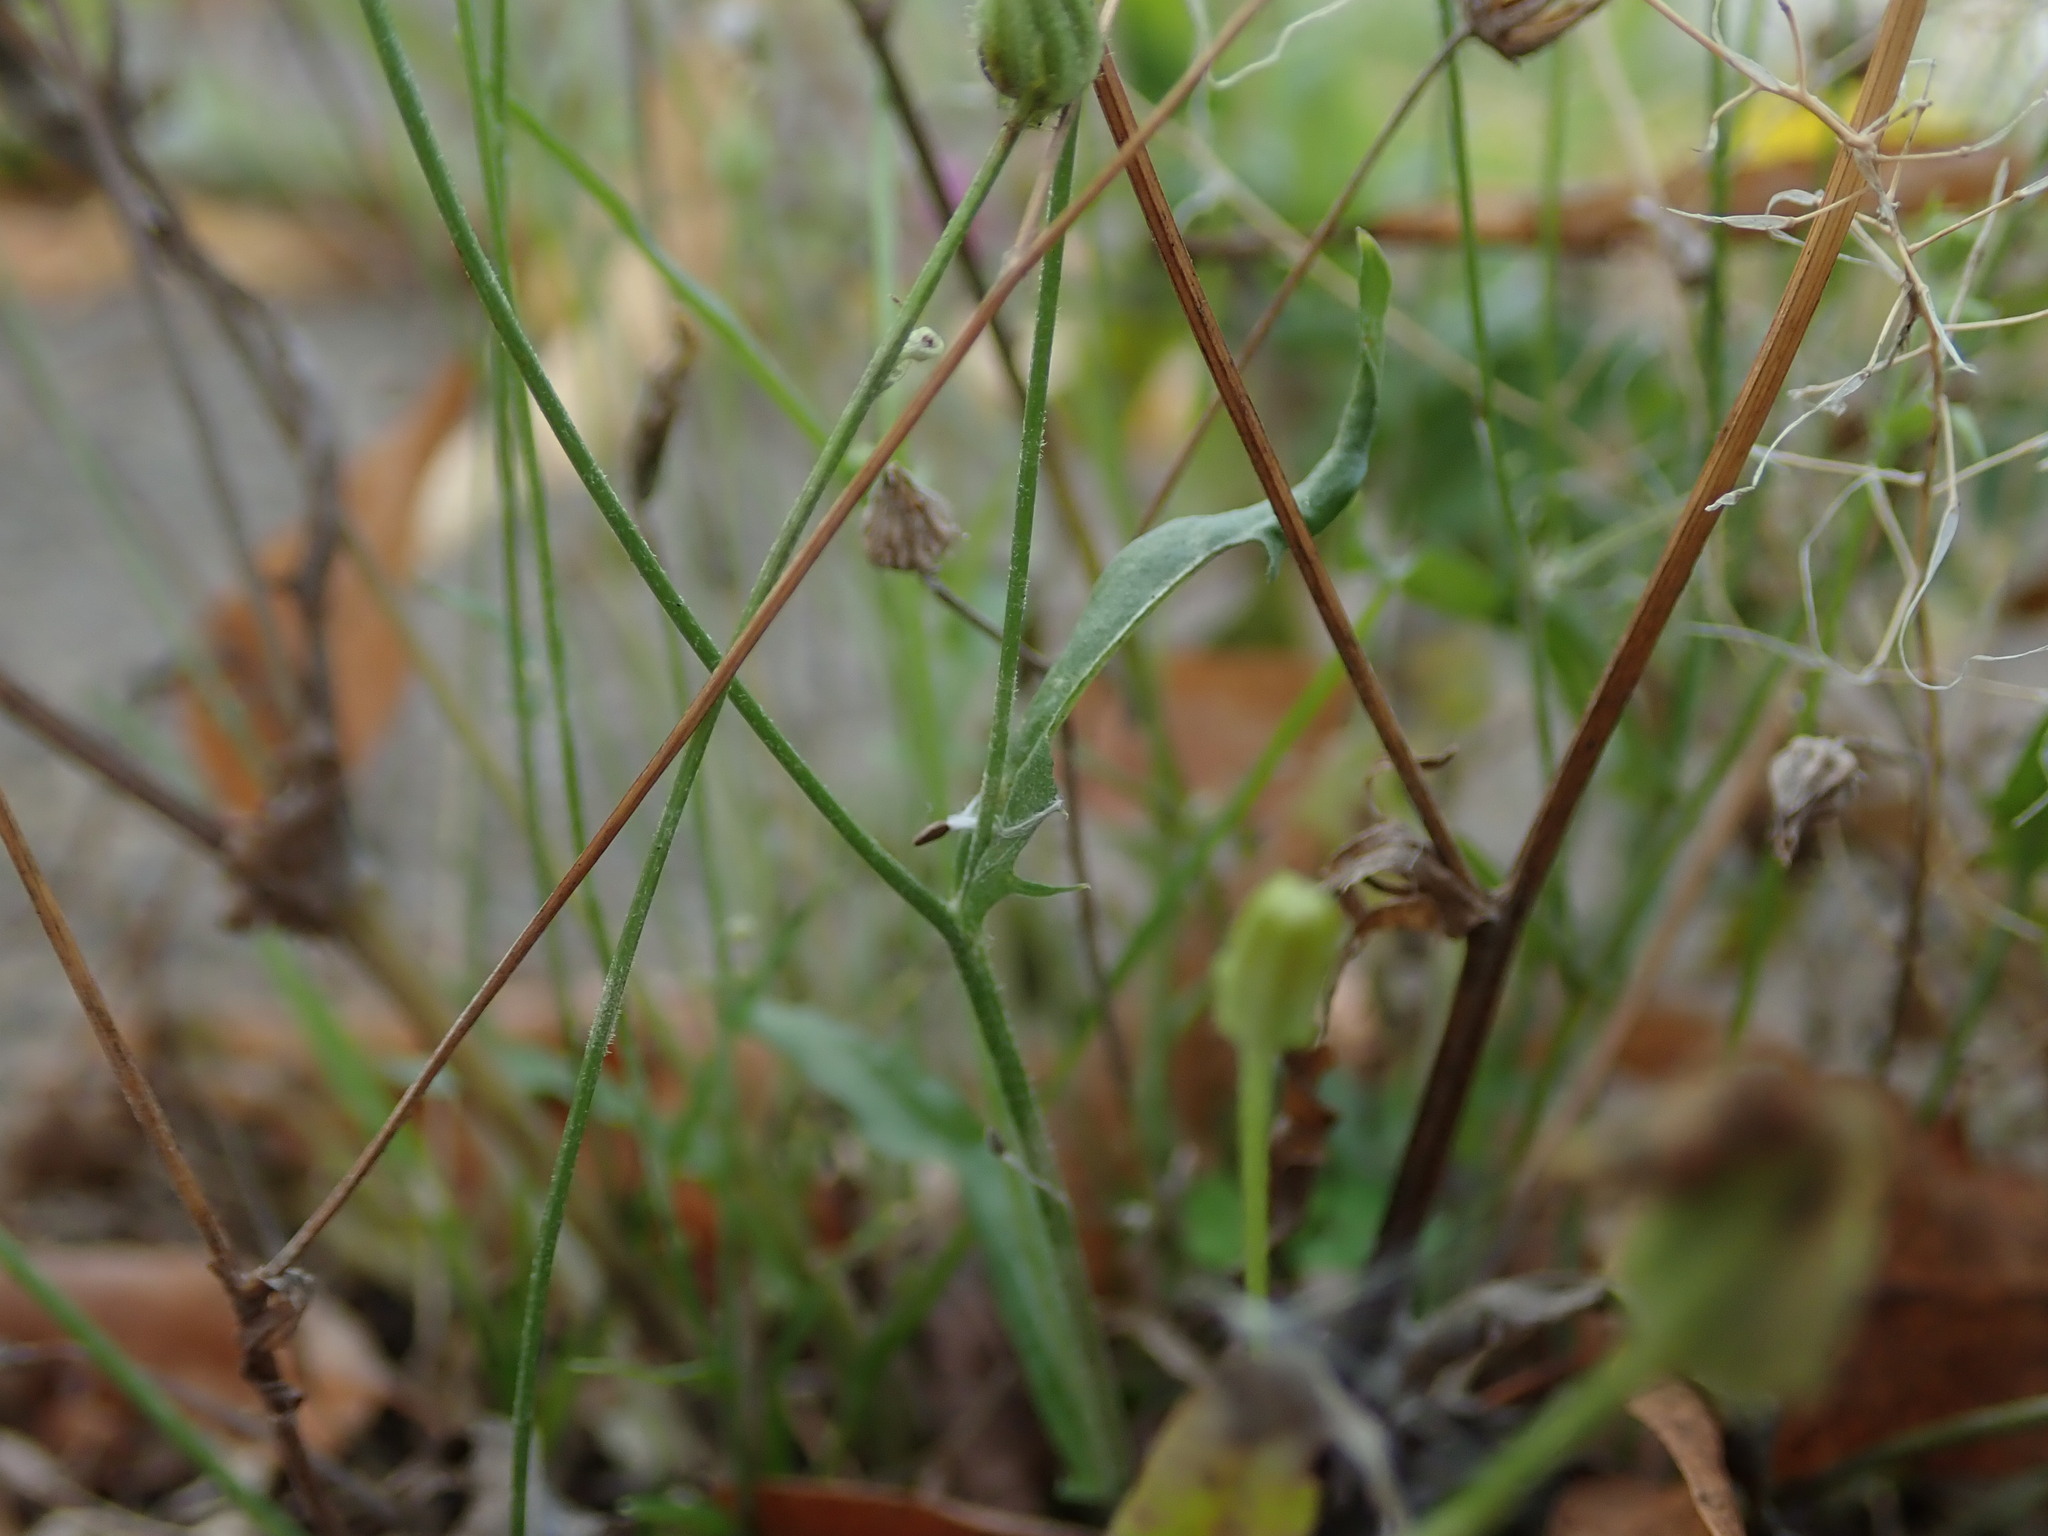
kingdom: Plantae
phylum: Tracheophyta
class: Magnoliopsida
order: Asterales
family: Asteraceae
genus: Crepis
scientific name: Crepis capillaris
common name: Smooth hawksbeard
